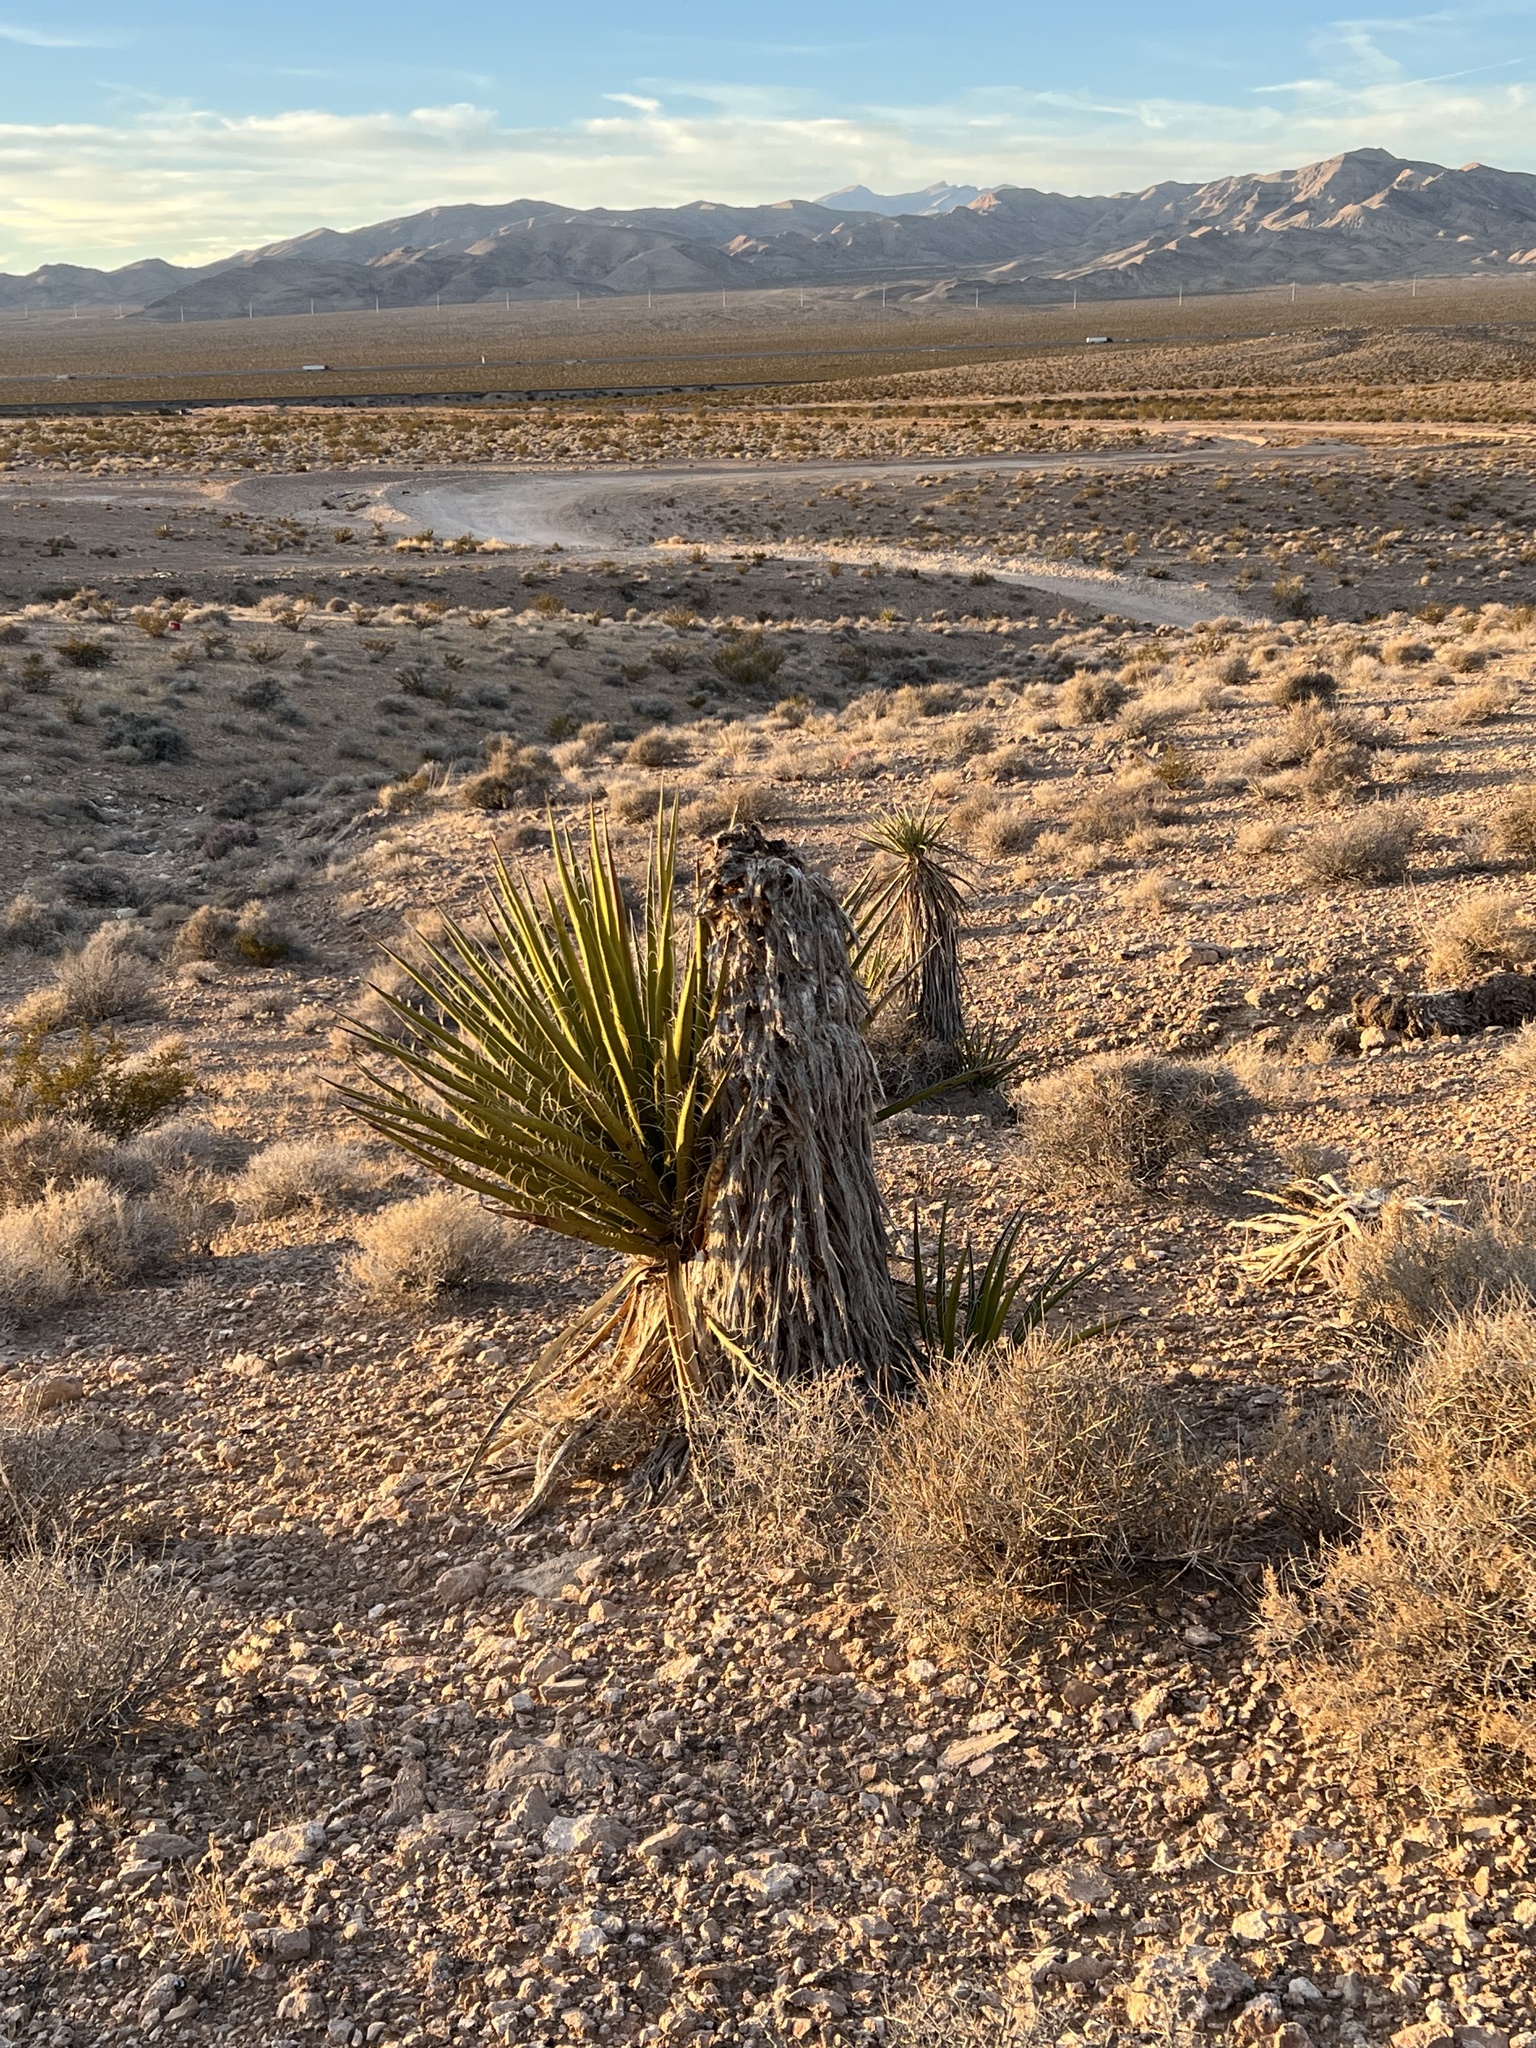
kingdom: Plantae
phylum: Tracheophyta
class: Liliopsida
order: Asparagales
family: Asparagaceae
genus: Yucca
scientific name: Yucca schidigera
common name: Mojave yucca
